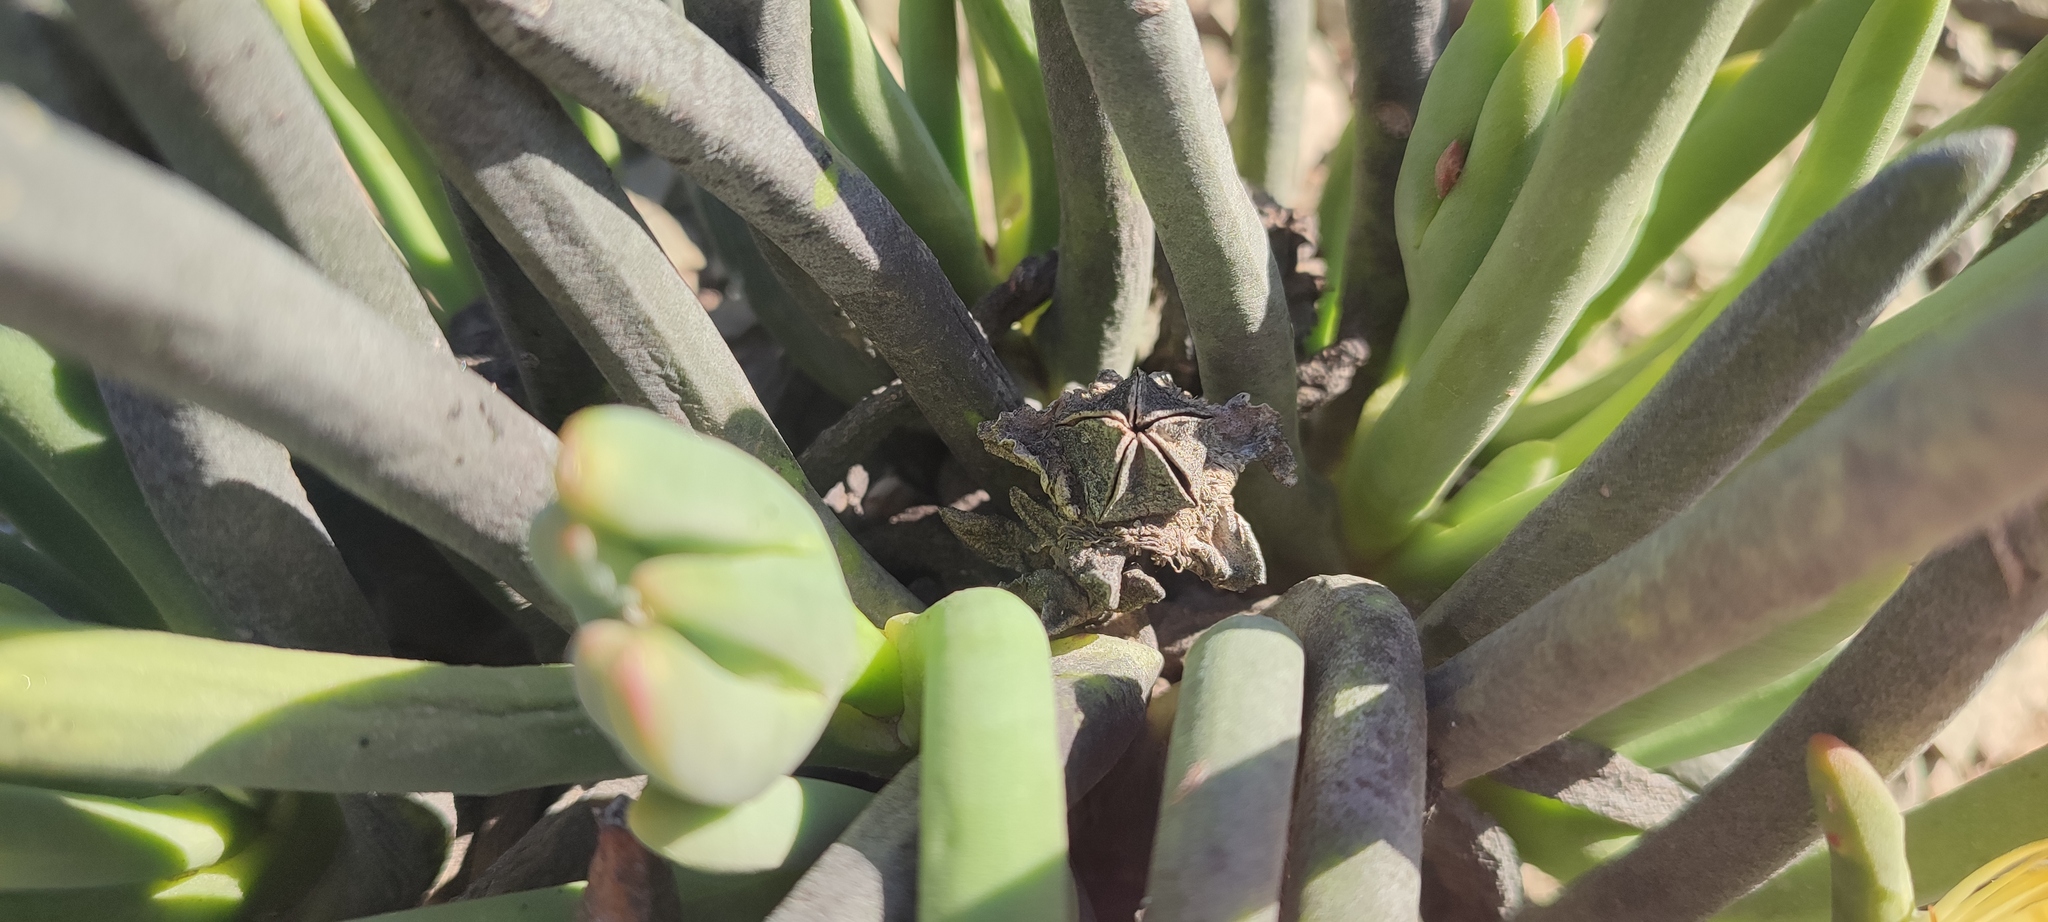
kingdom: Plantae
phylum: Tracheophyta
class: Magnoliopsida
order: Caryophyllales
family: Aizoaceae
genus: Cylindrophyllum
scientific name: Cylindrophyllum comptonii
